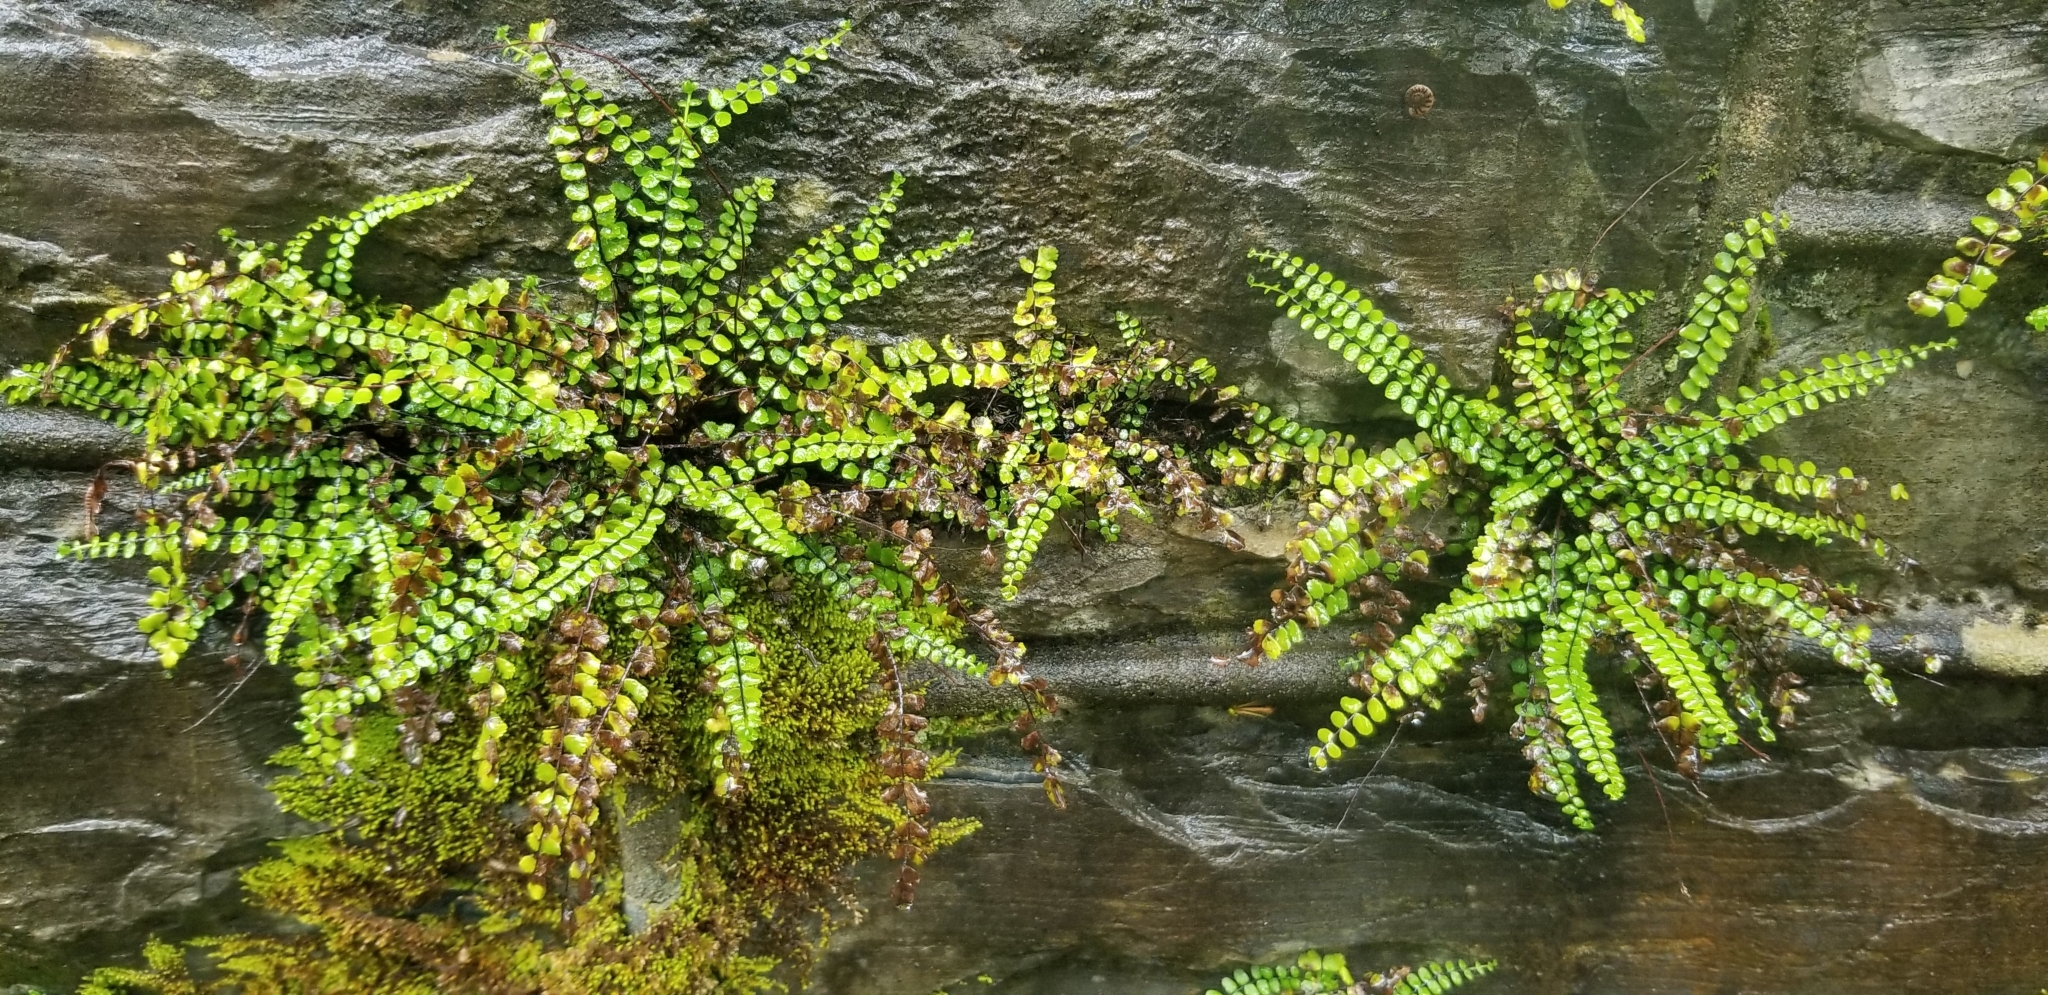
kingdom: Plantae
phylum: Tracheophyta
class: Polypodiopsida
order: Polypodiales
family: Aspleniaceae
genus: Asplenium
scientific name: Asplenium trichomanes
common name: Maidenhair spleenwort
